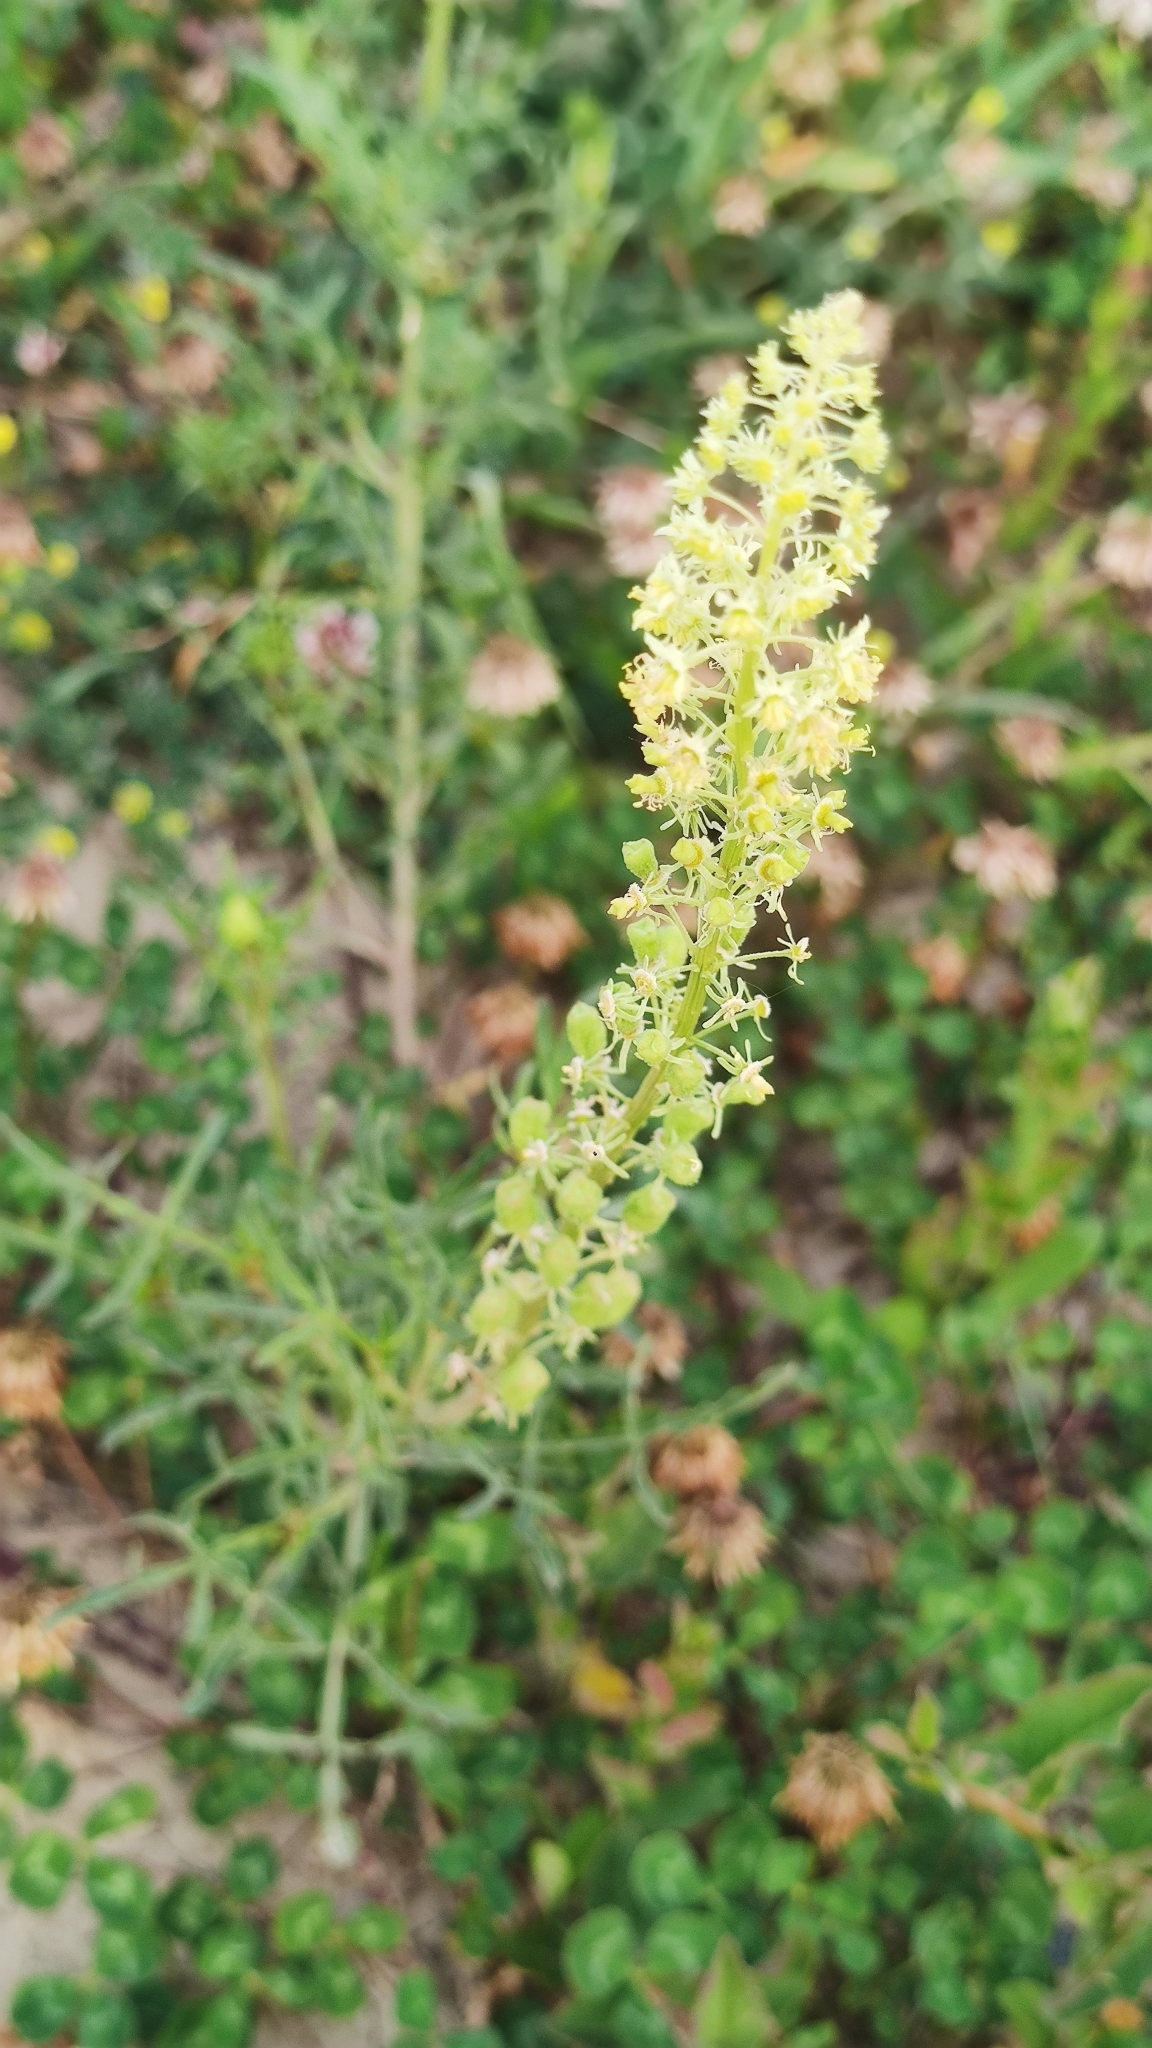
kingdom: Plantae
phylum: Tracheophyta
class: Magnoliopsida
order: Brassicales
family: Resedaceae
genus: Reseda
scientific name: Reseda lutea
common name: Wild mignonette
